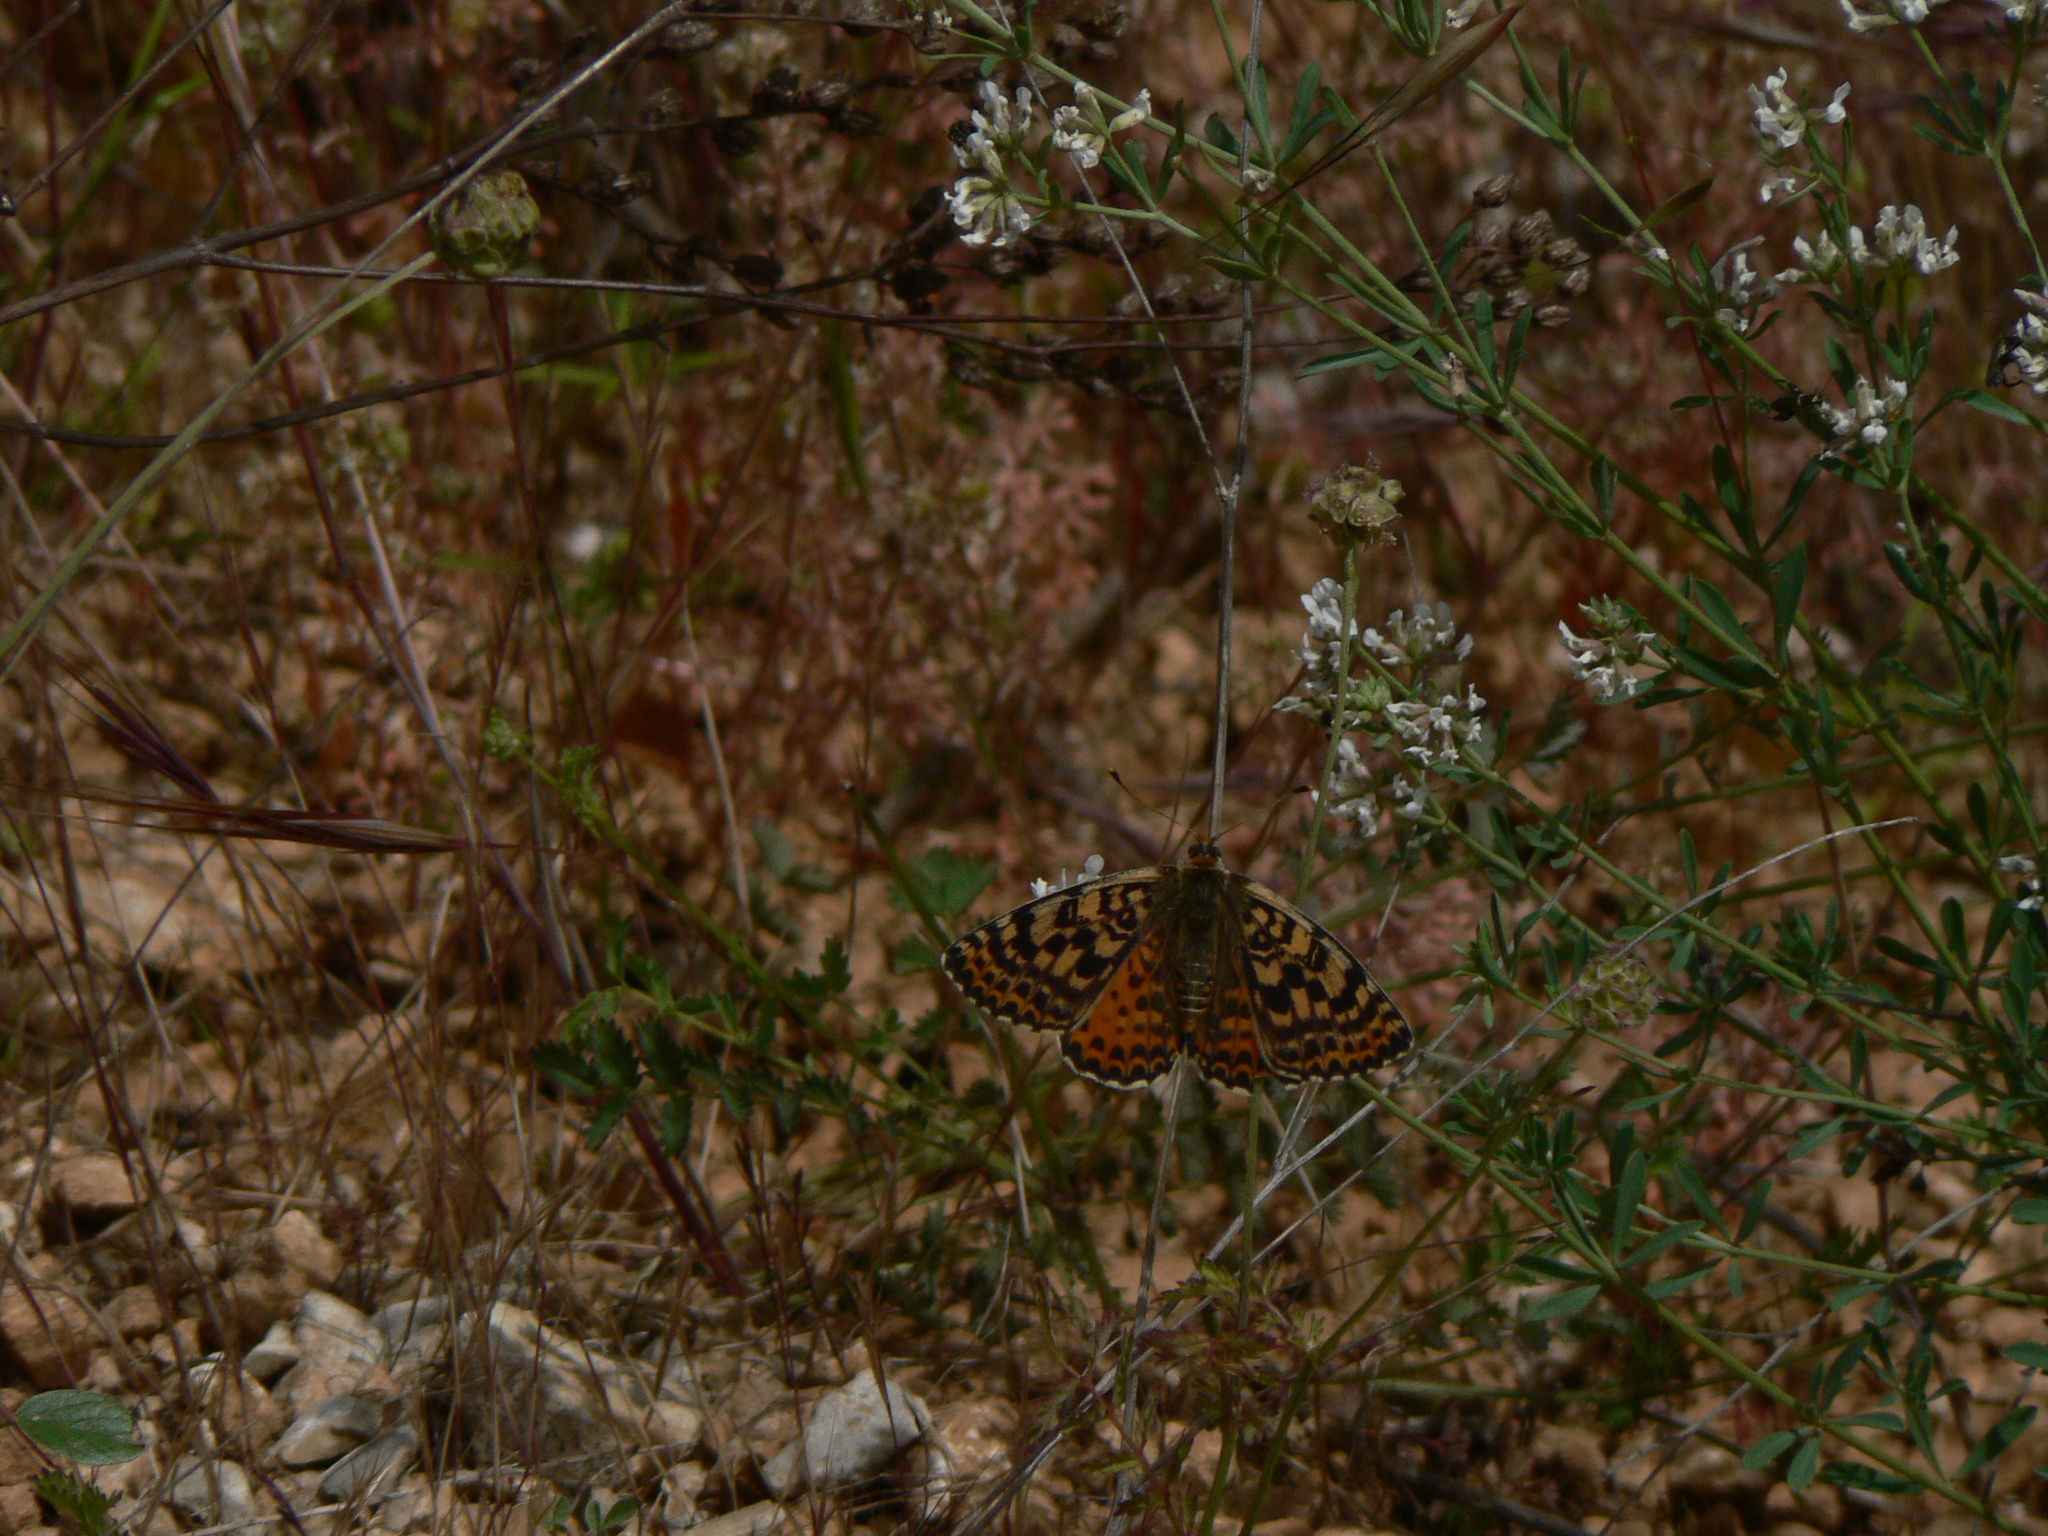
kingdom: Animalia
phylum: Arthropoda
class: Insecta
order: Lepidoptera
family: Nymphalidae
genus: Melitaea
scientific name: Melitaea didyma
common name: Spotted fritillary
